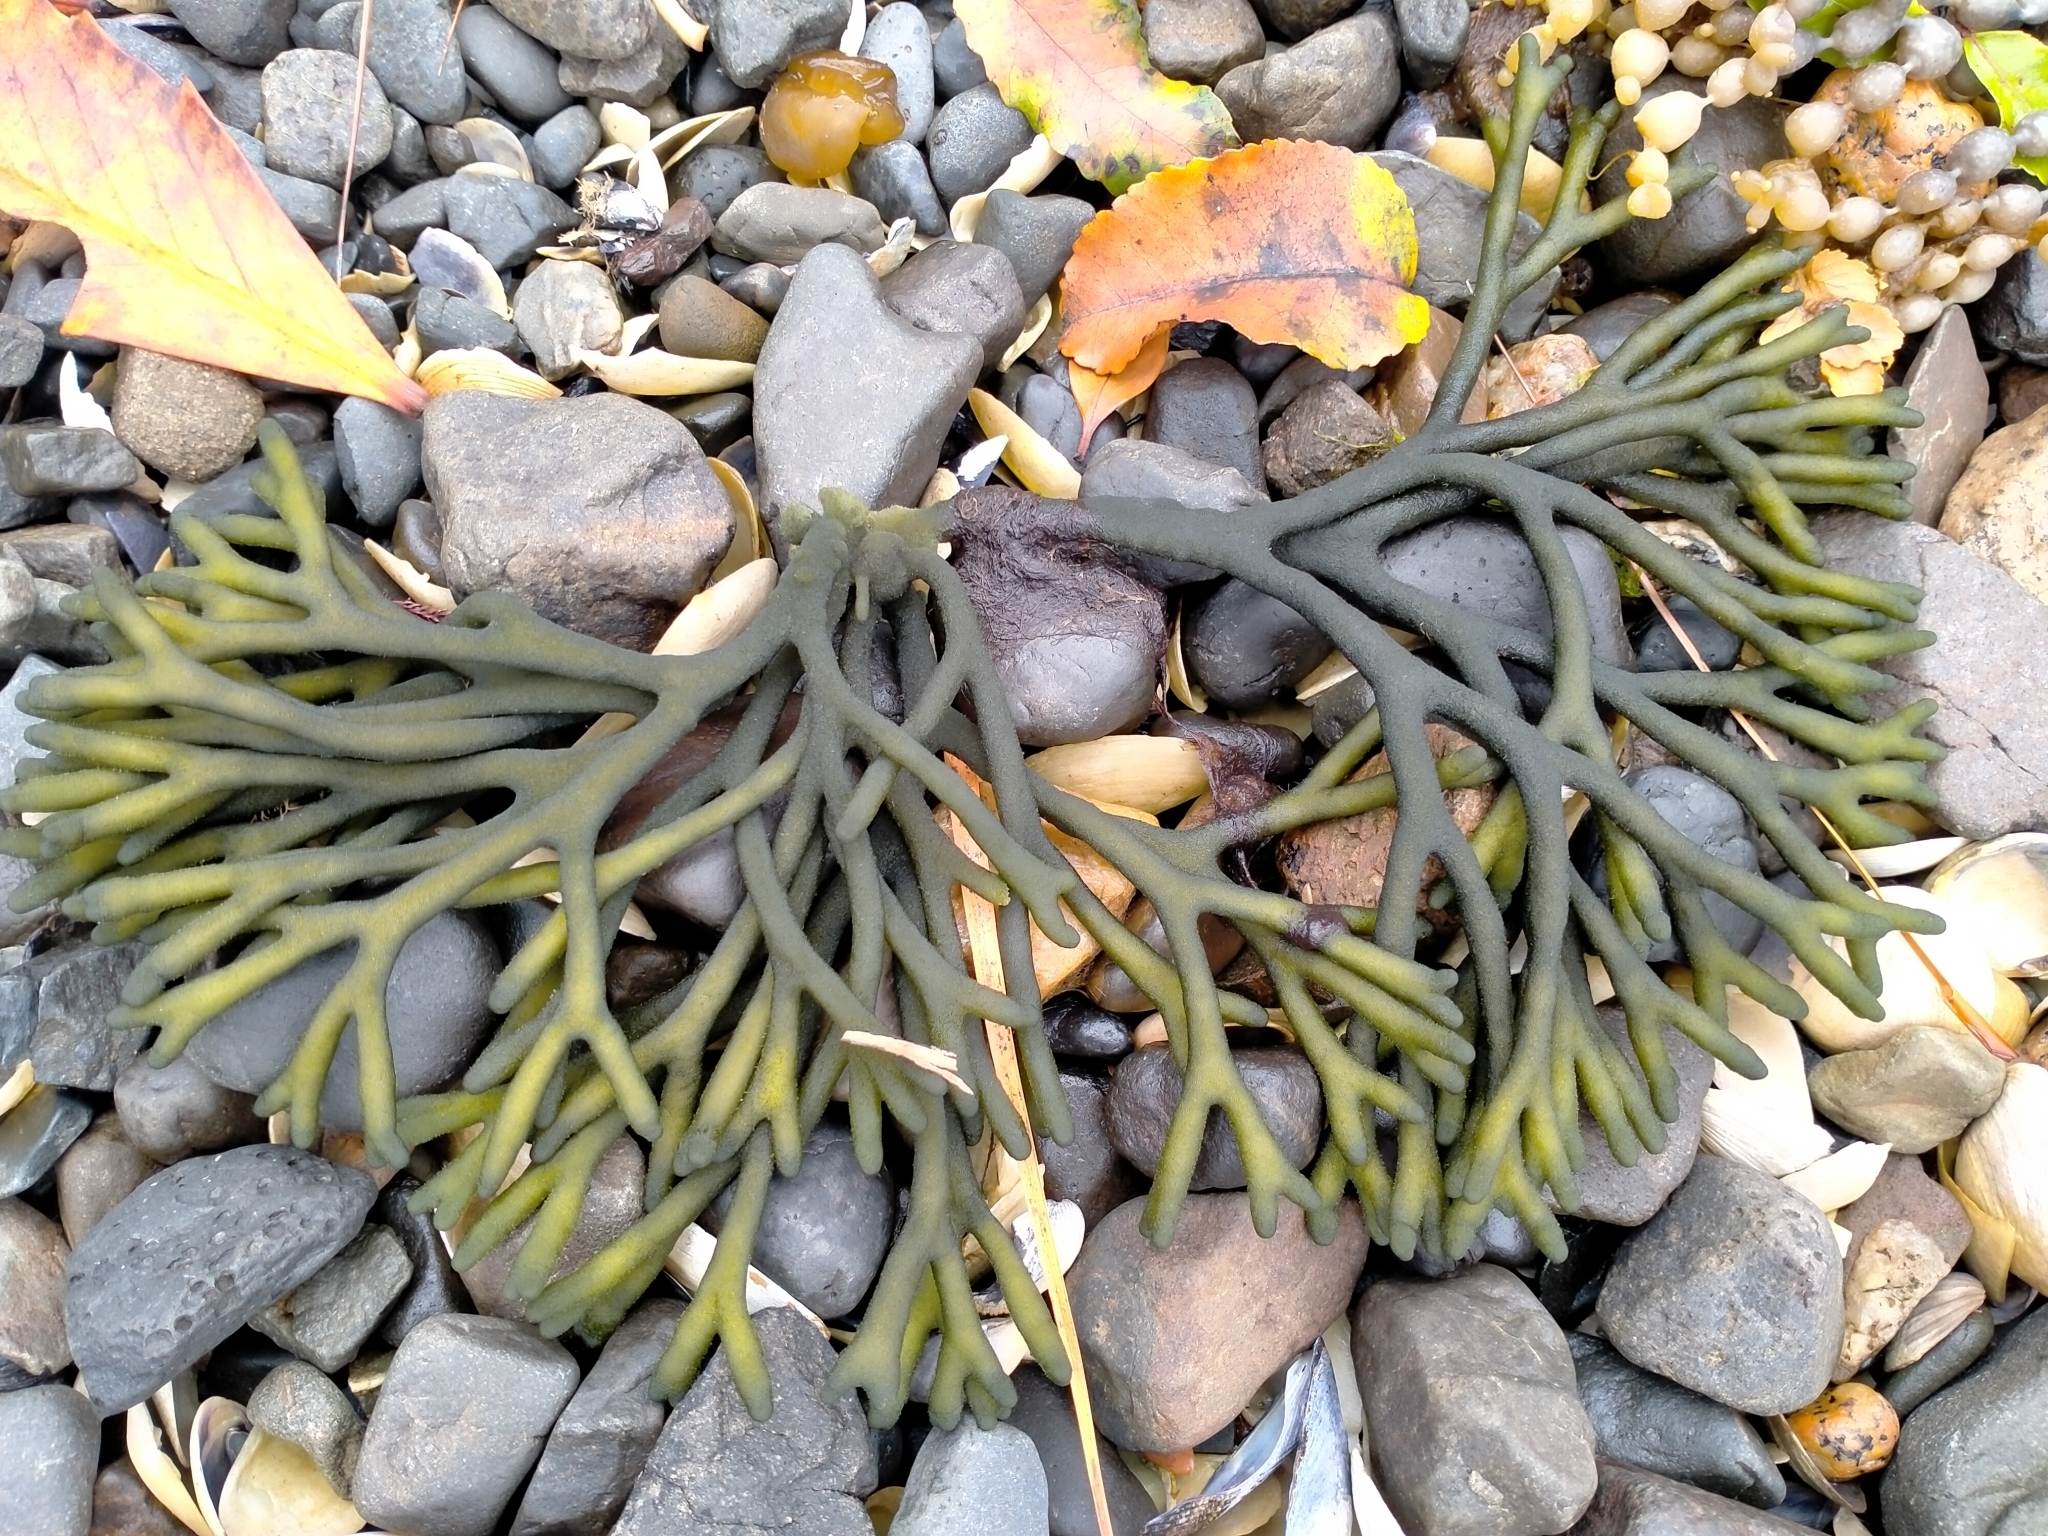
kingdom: Plantae
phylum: Chlorophyta
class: Ulvophyceae
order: Bryopsidales
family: Codiaceae
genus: Codium
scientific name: Codium fragile
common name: Dead man's fingers
